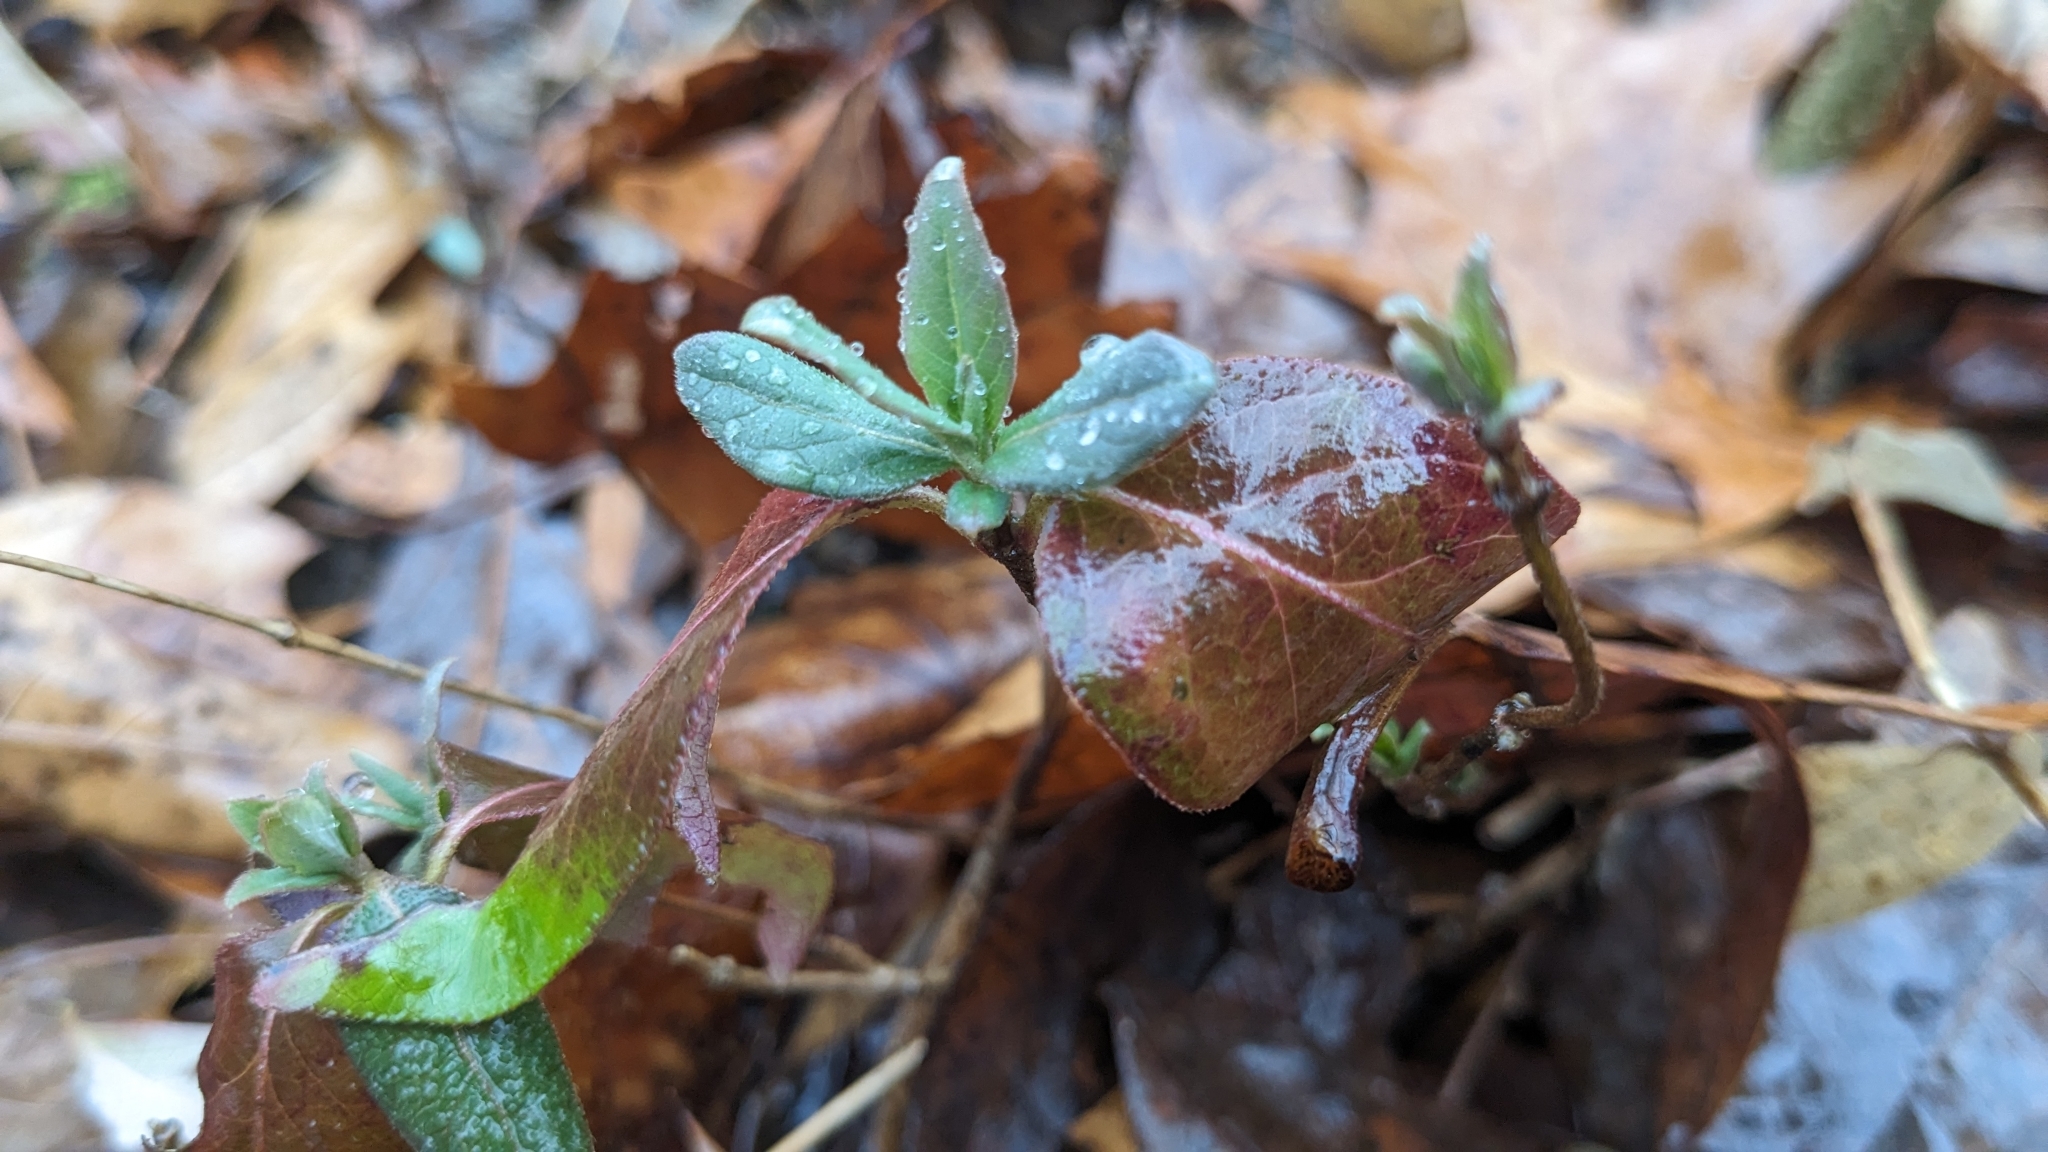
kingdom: Plantae
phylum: Tracheophyta
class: Magnoliopsida
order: Dipsacales
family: Caprifoliaceae
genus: Lonicera
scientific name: Lonicera japonica
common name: Japanese honeysuckle
